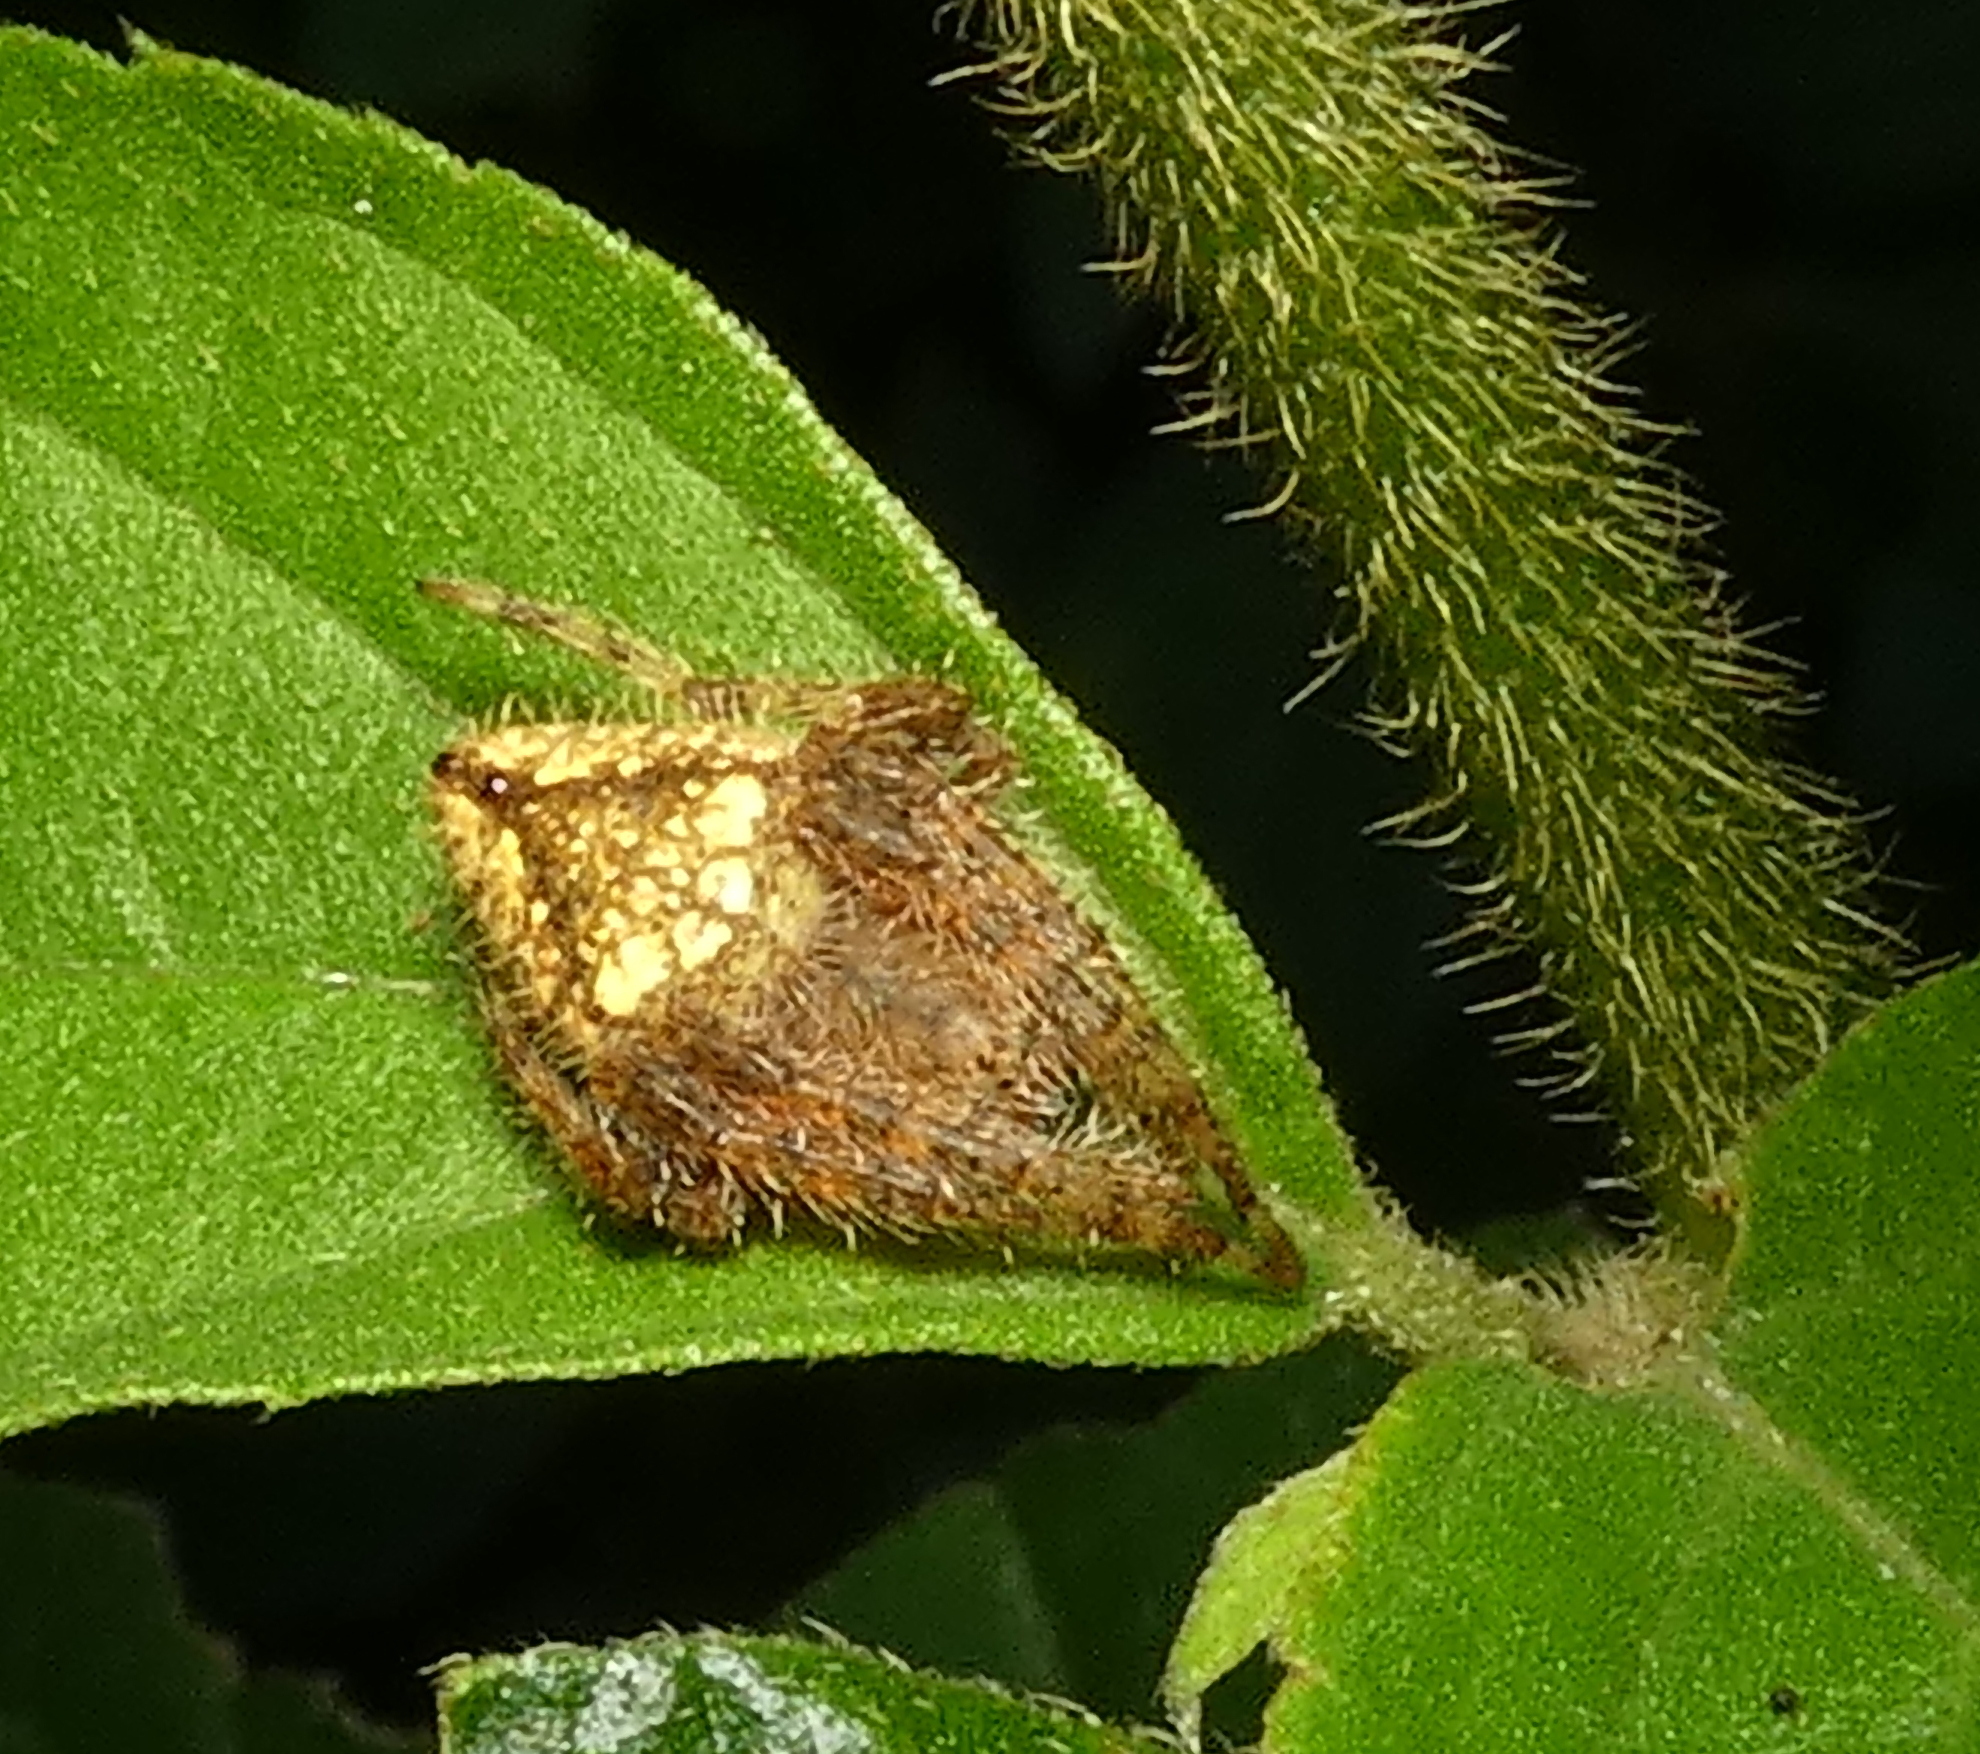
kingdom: Animalia
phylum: Arthropoda
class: Arachnida
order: Araneae
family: Araneidae
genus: Eriophora
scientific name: Eriophora edax
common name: Orb weavers
